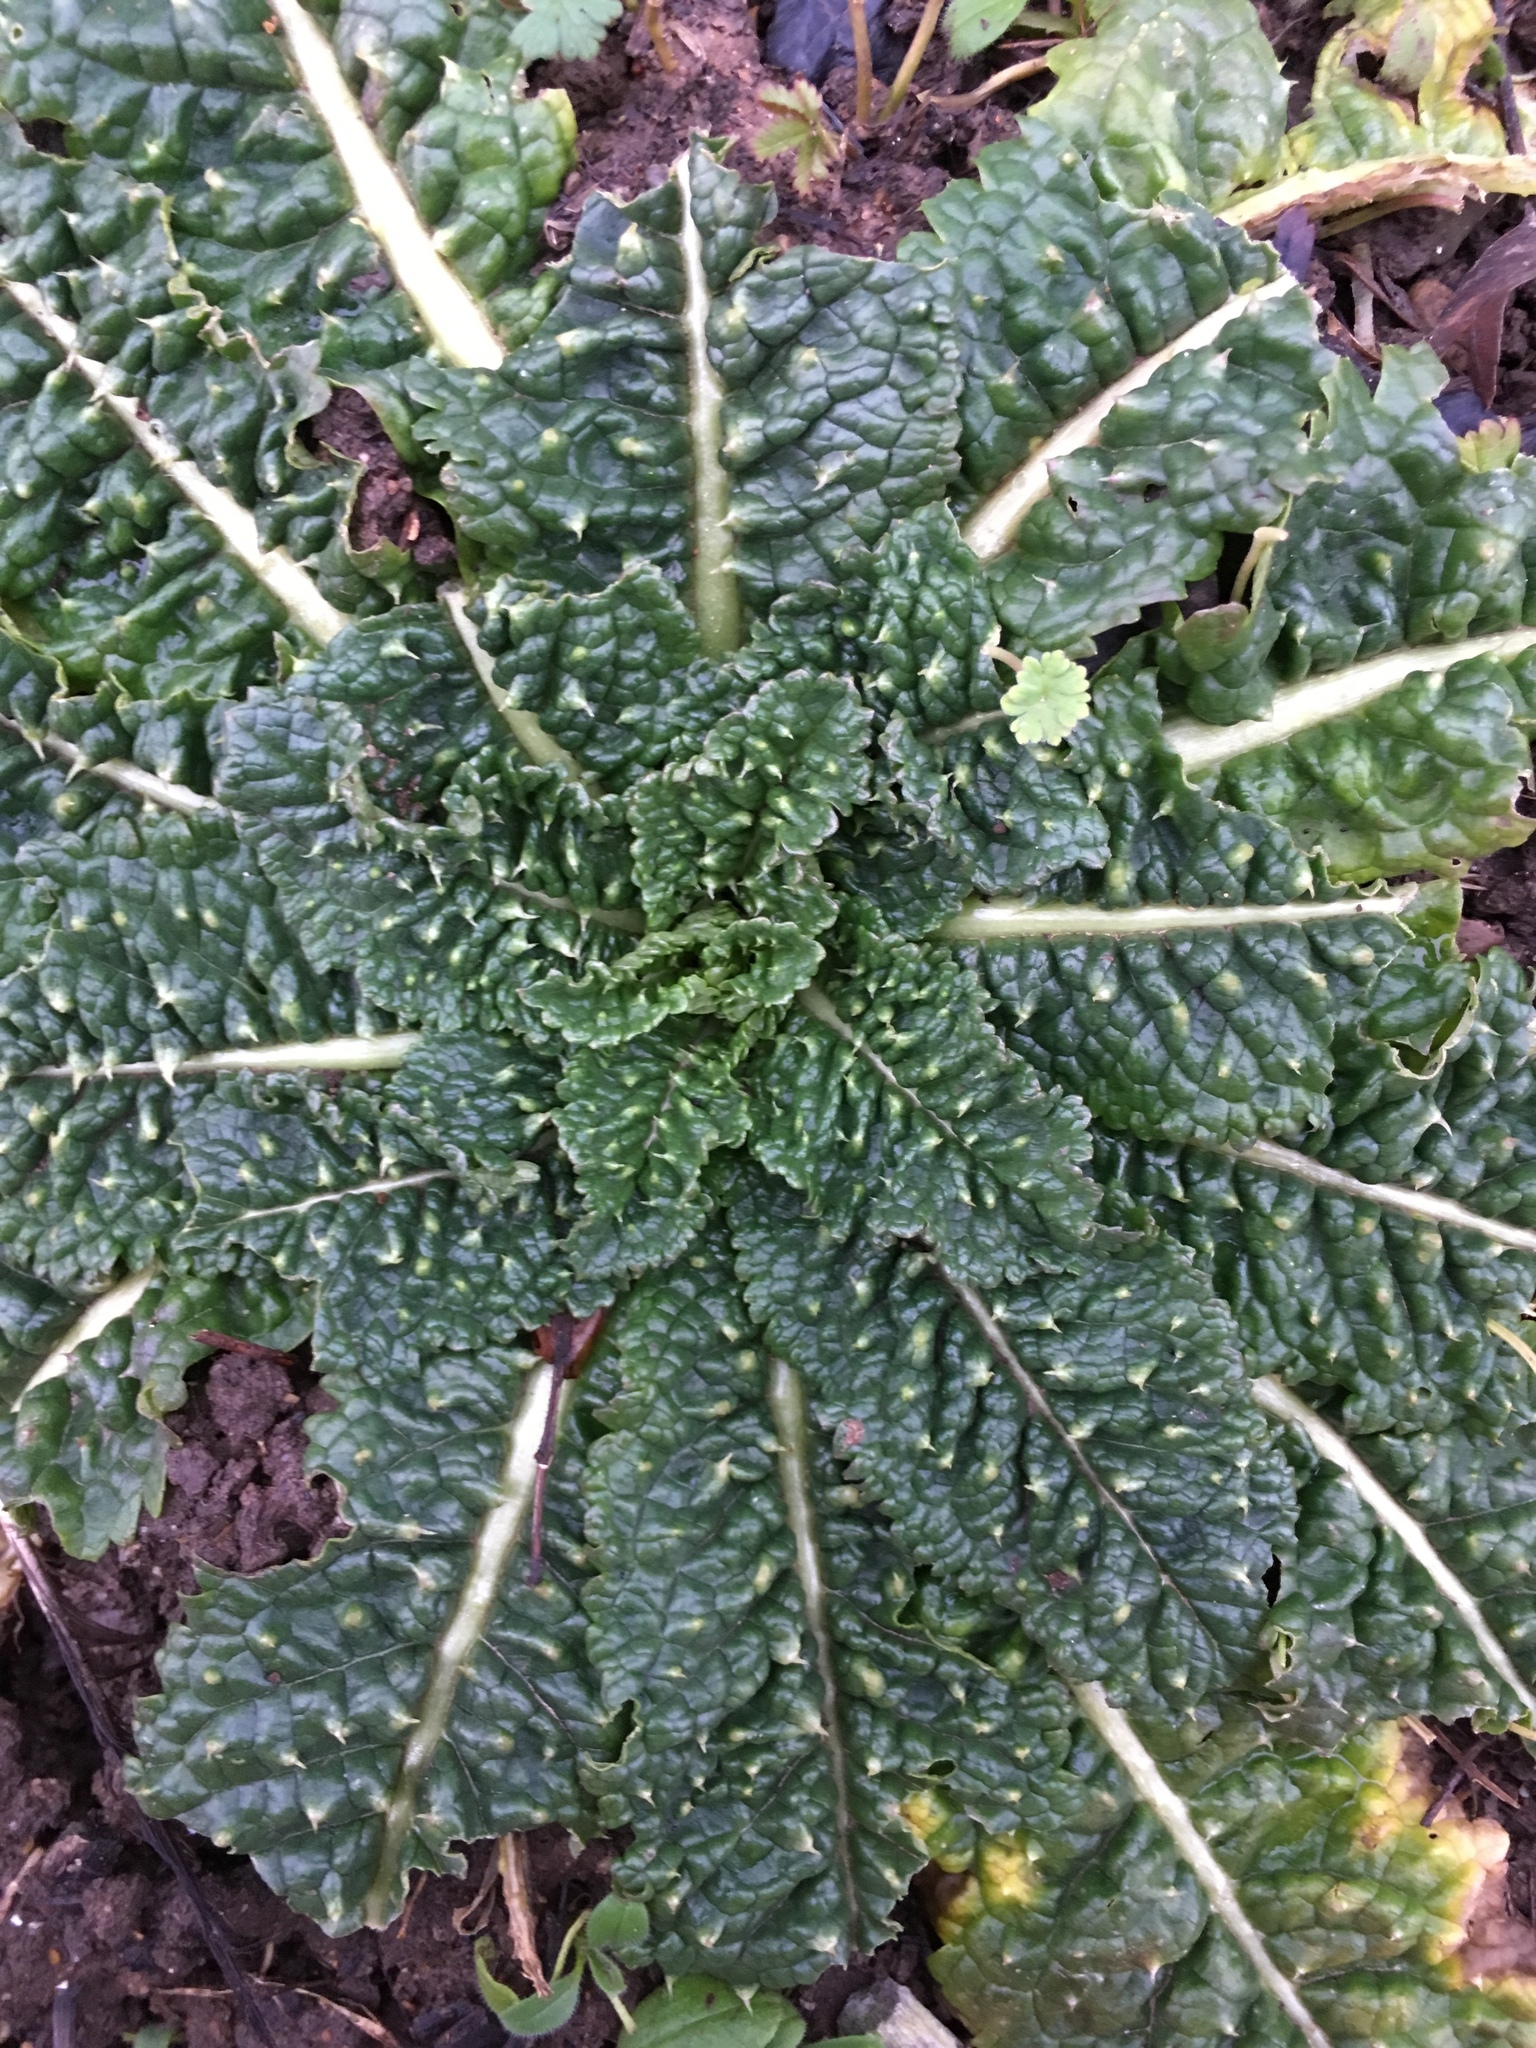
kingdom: Plantae
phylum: Tracheophyta
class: Magnoliopsida
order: Dipsacales
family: Caprifoliaceae
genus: Dipsacus
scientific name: Dipsacus fullonum
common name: Teasel
